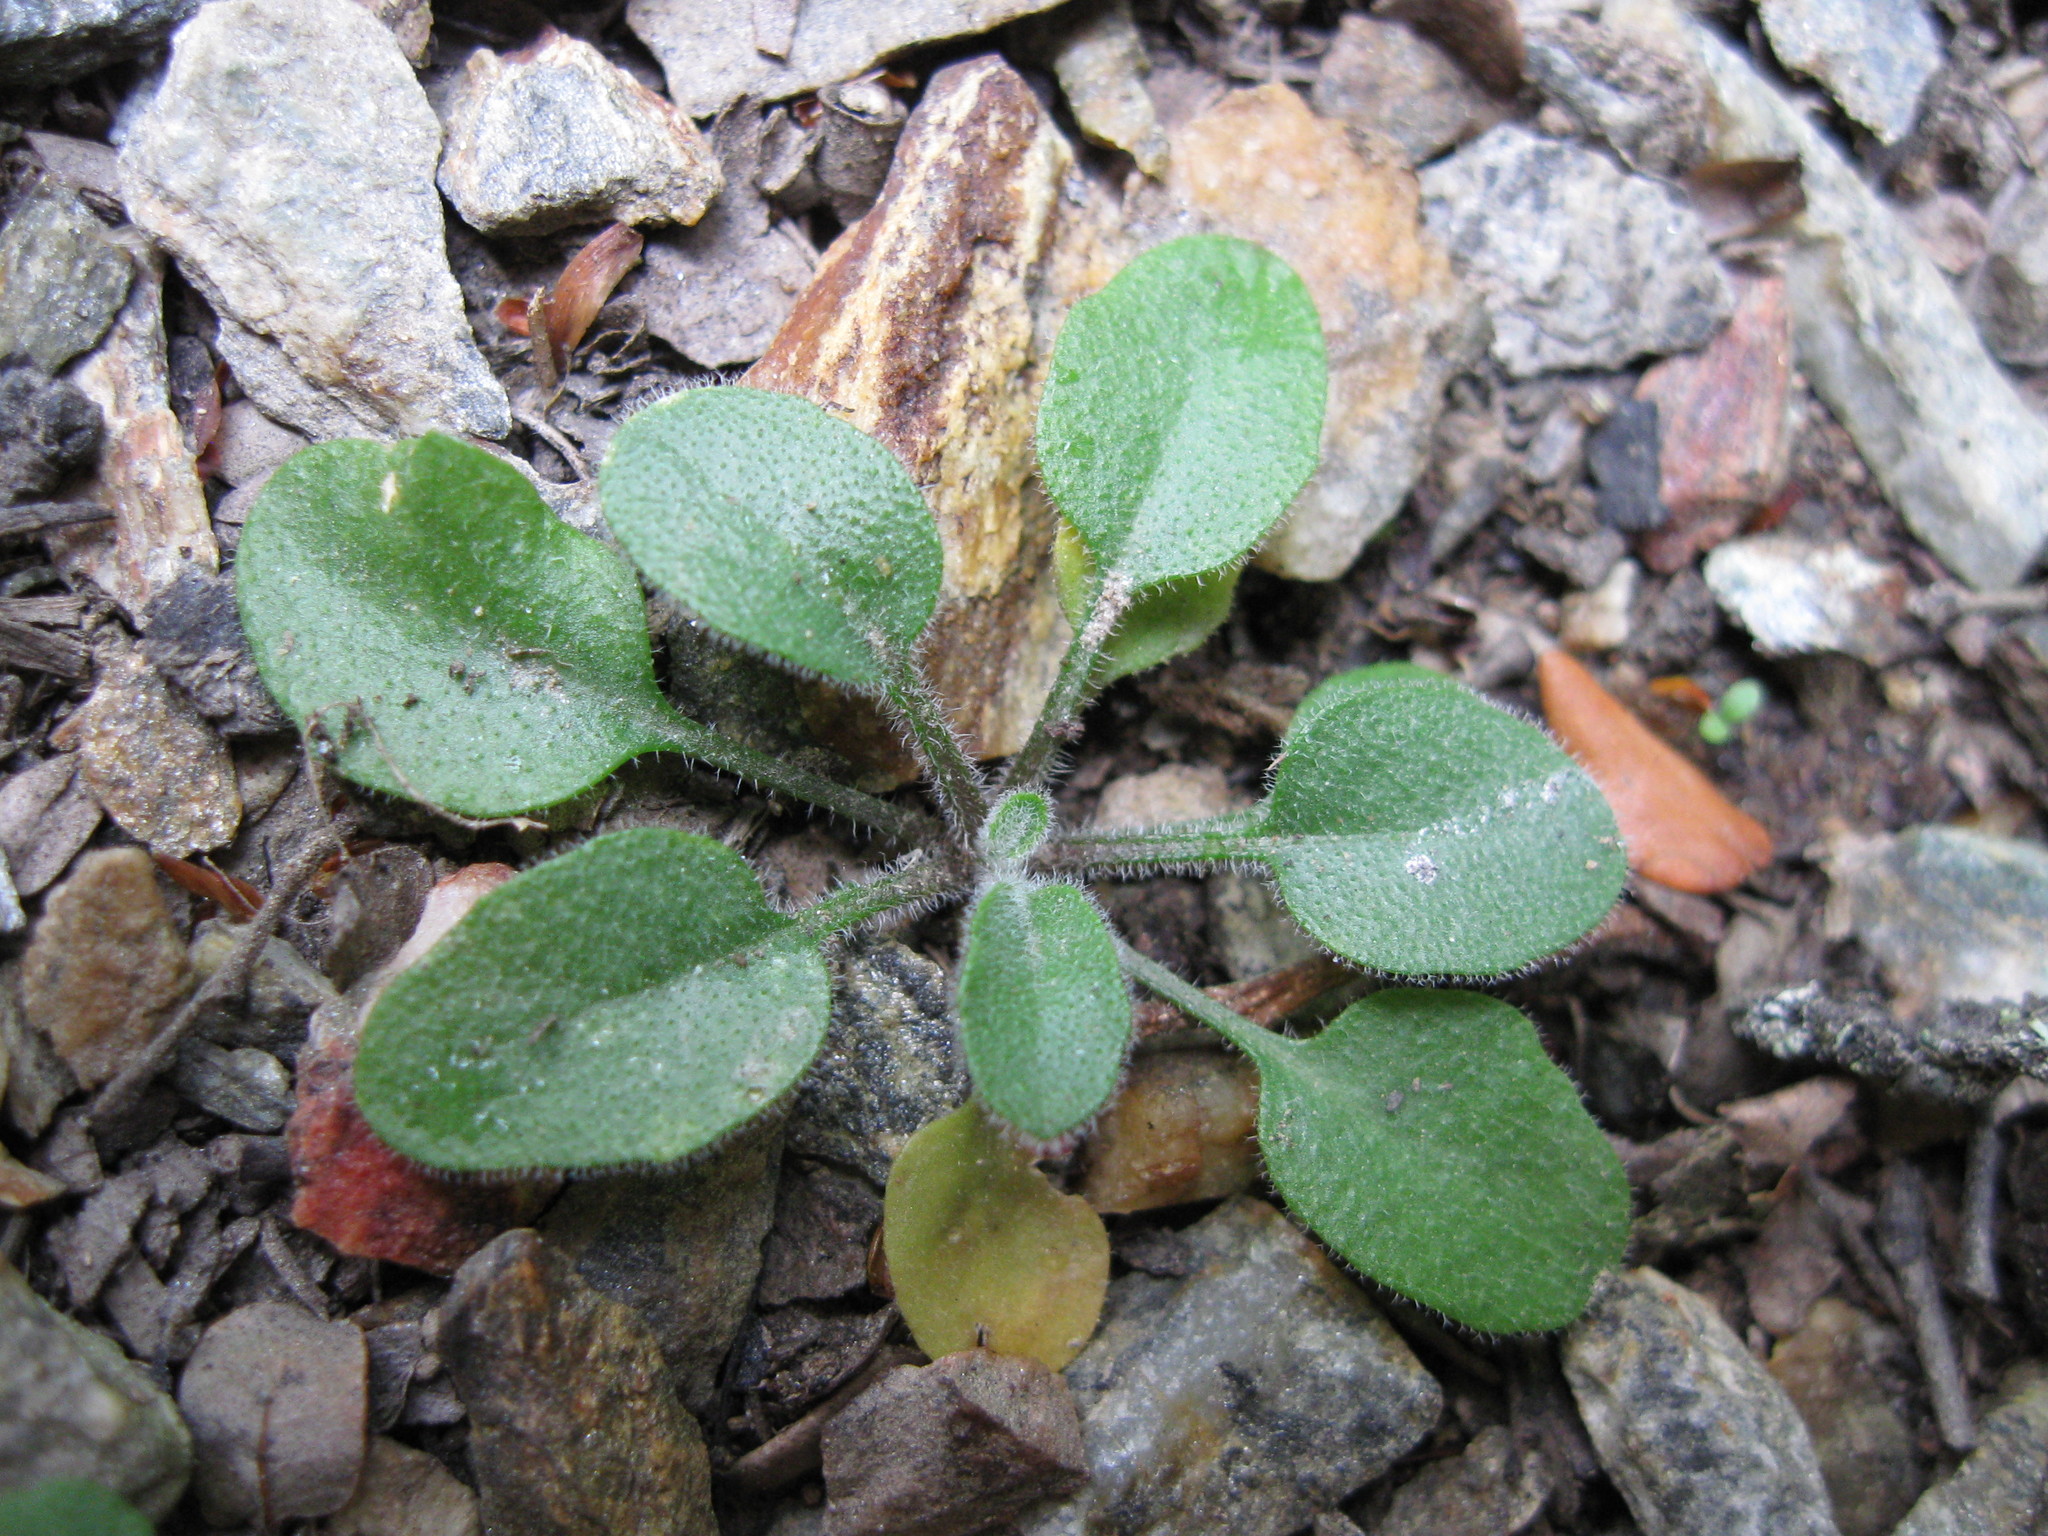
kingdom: Plantae
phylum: Tracheophyta
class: Magnoliopsida
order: Brassicales
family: Brassicaceae
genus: Pachycladon
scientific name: Pachycladon cheesemanii
